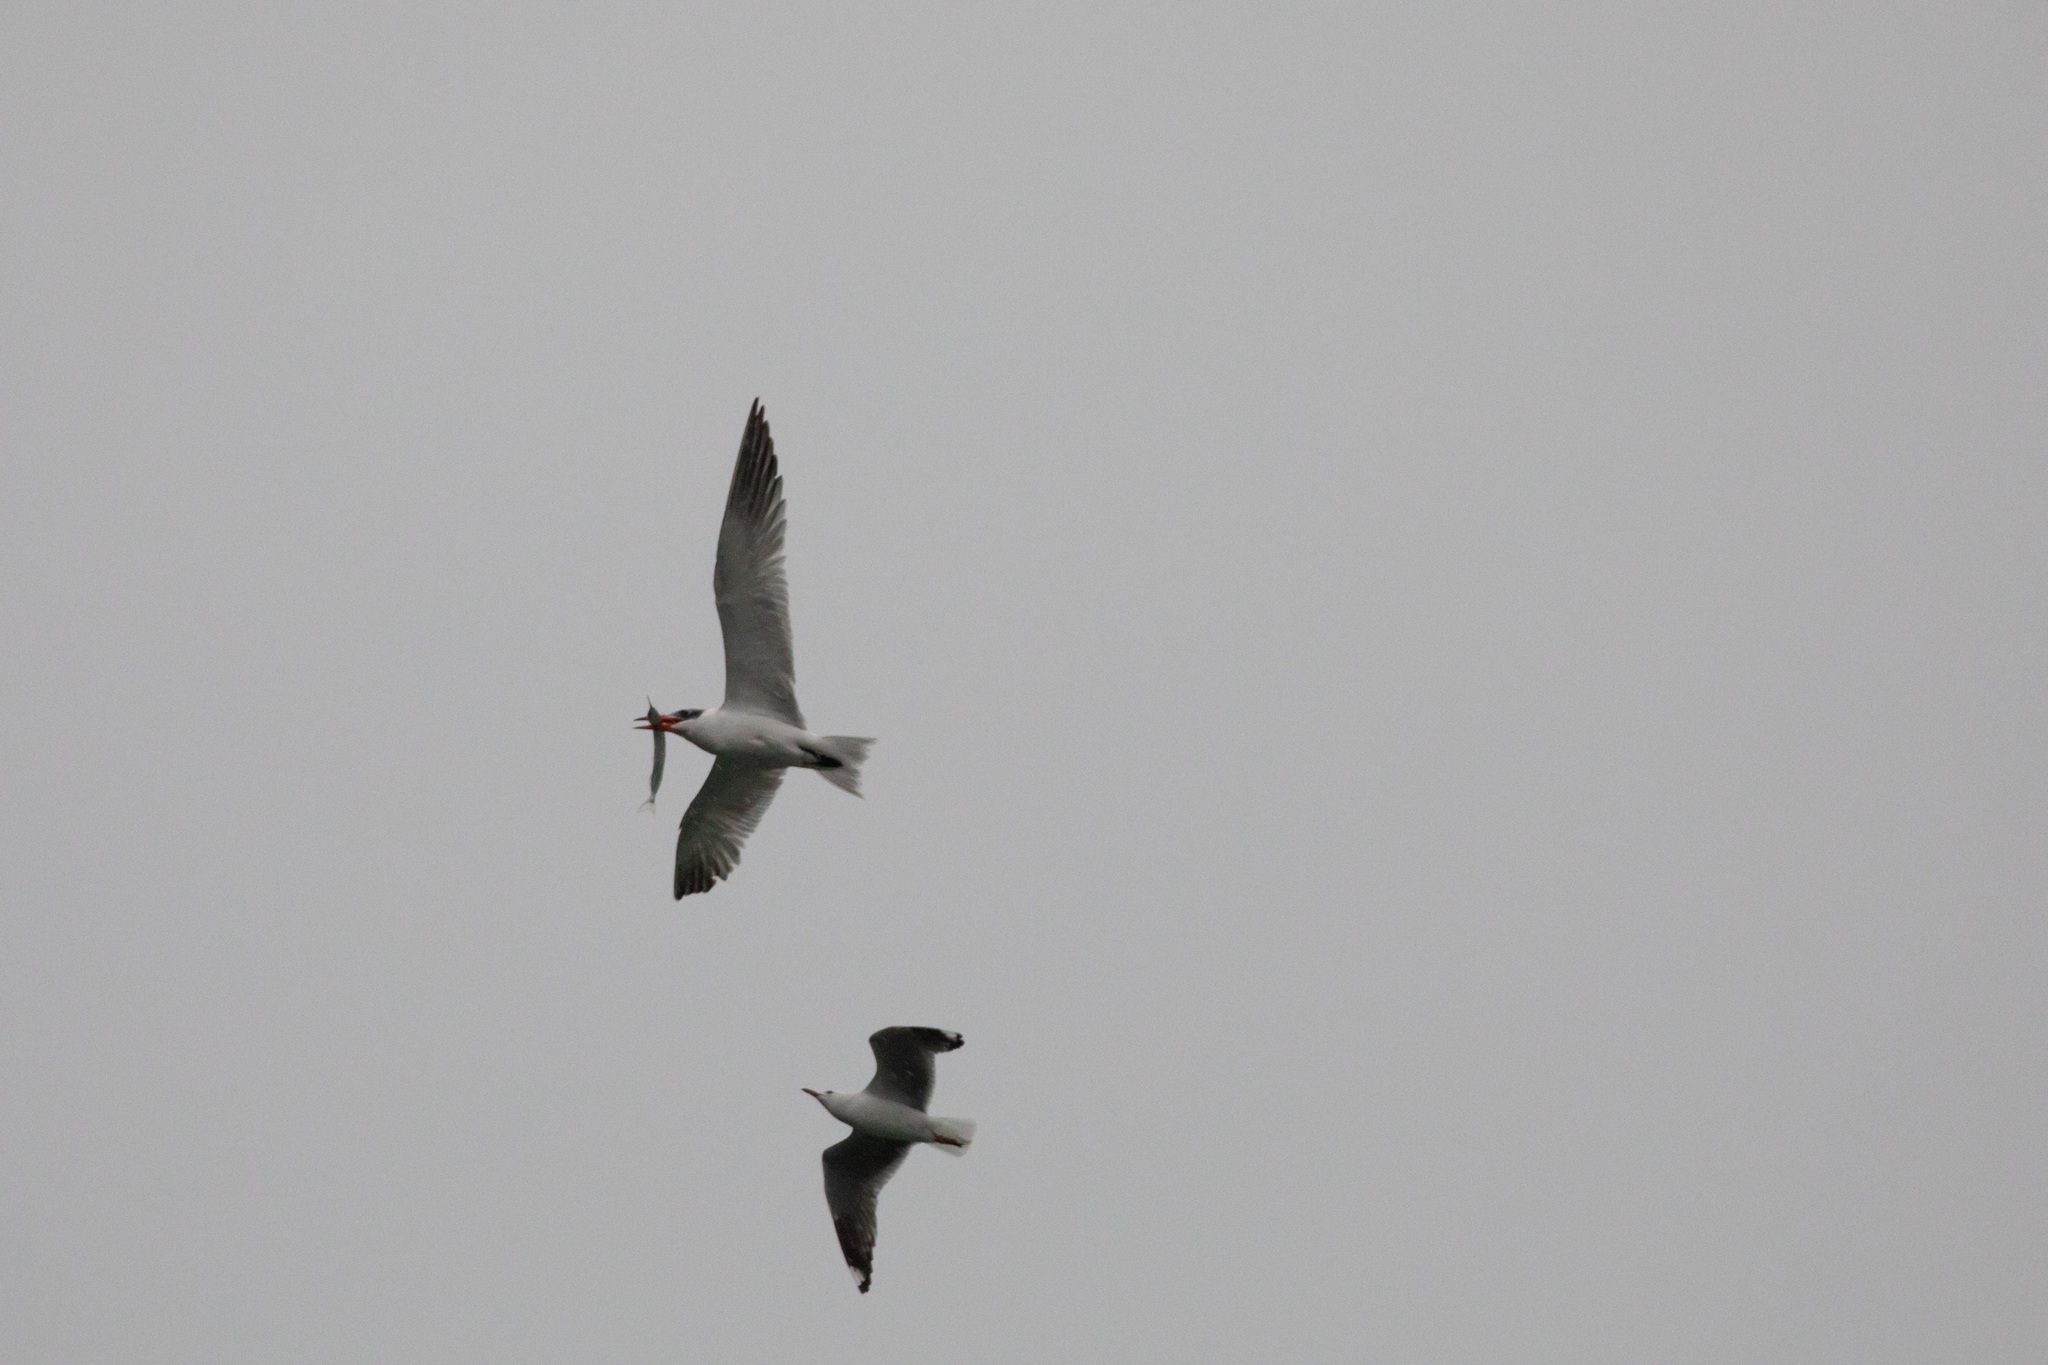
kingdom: Animalia
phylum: Chordata
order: Beloniformes
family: Hemiramphidae
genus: Hyporhamphus
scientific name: Hyporhamphus ihi
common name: Garfish
